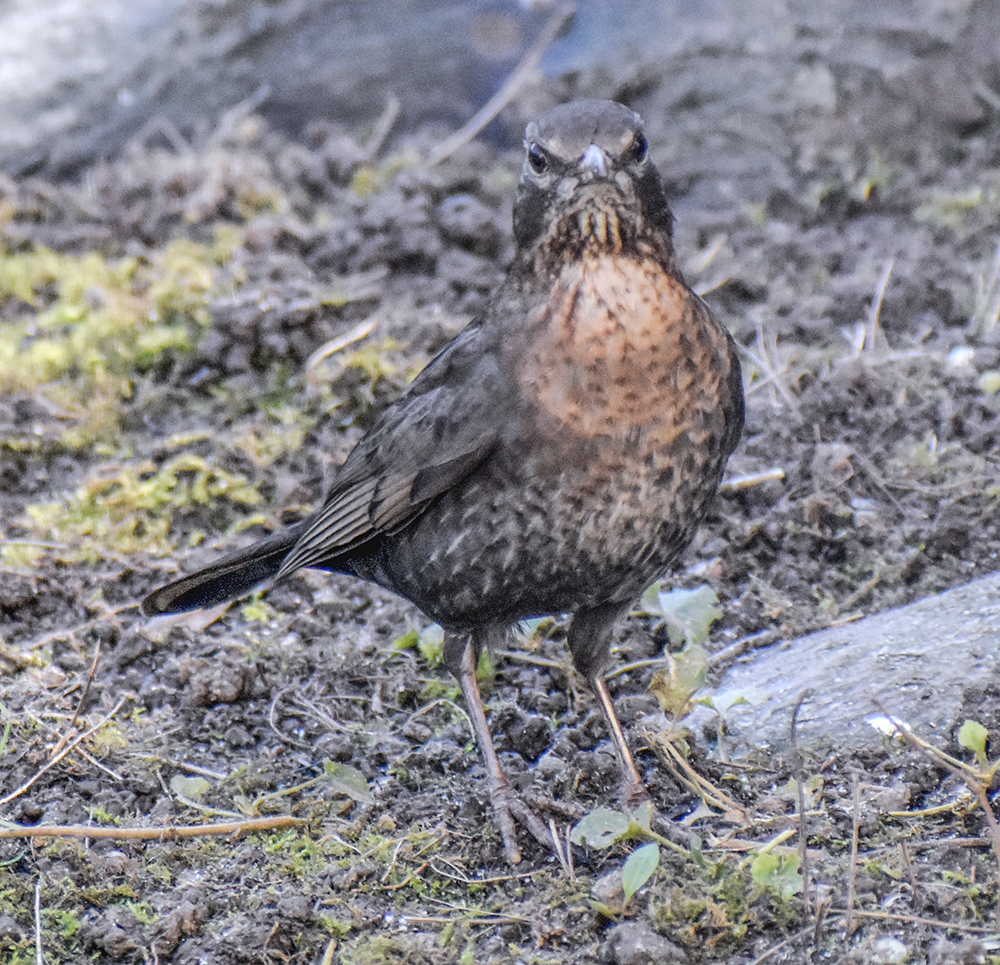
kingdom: Animalia
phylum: Chordata
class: Aves
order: Passeriformes
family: Turdidae
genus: Turdus
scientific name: Turdus merula
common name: Common blackbird
